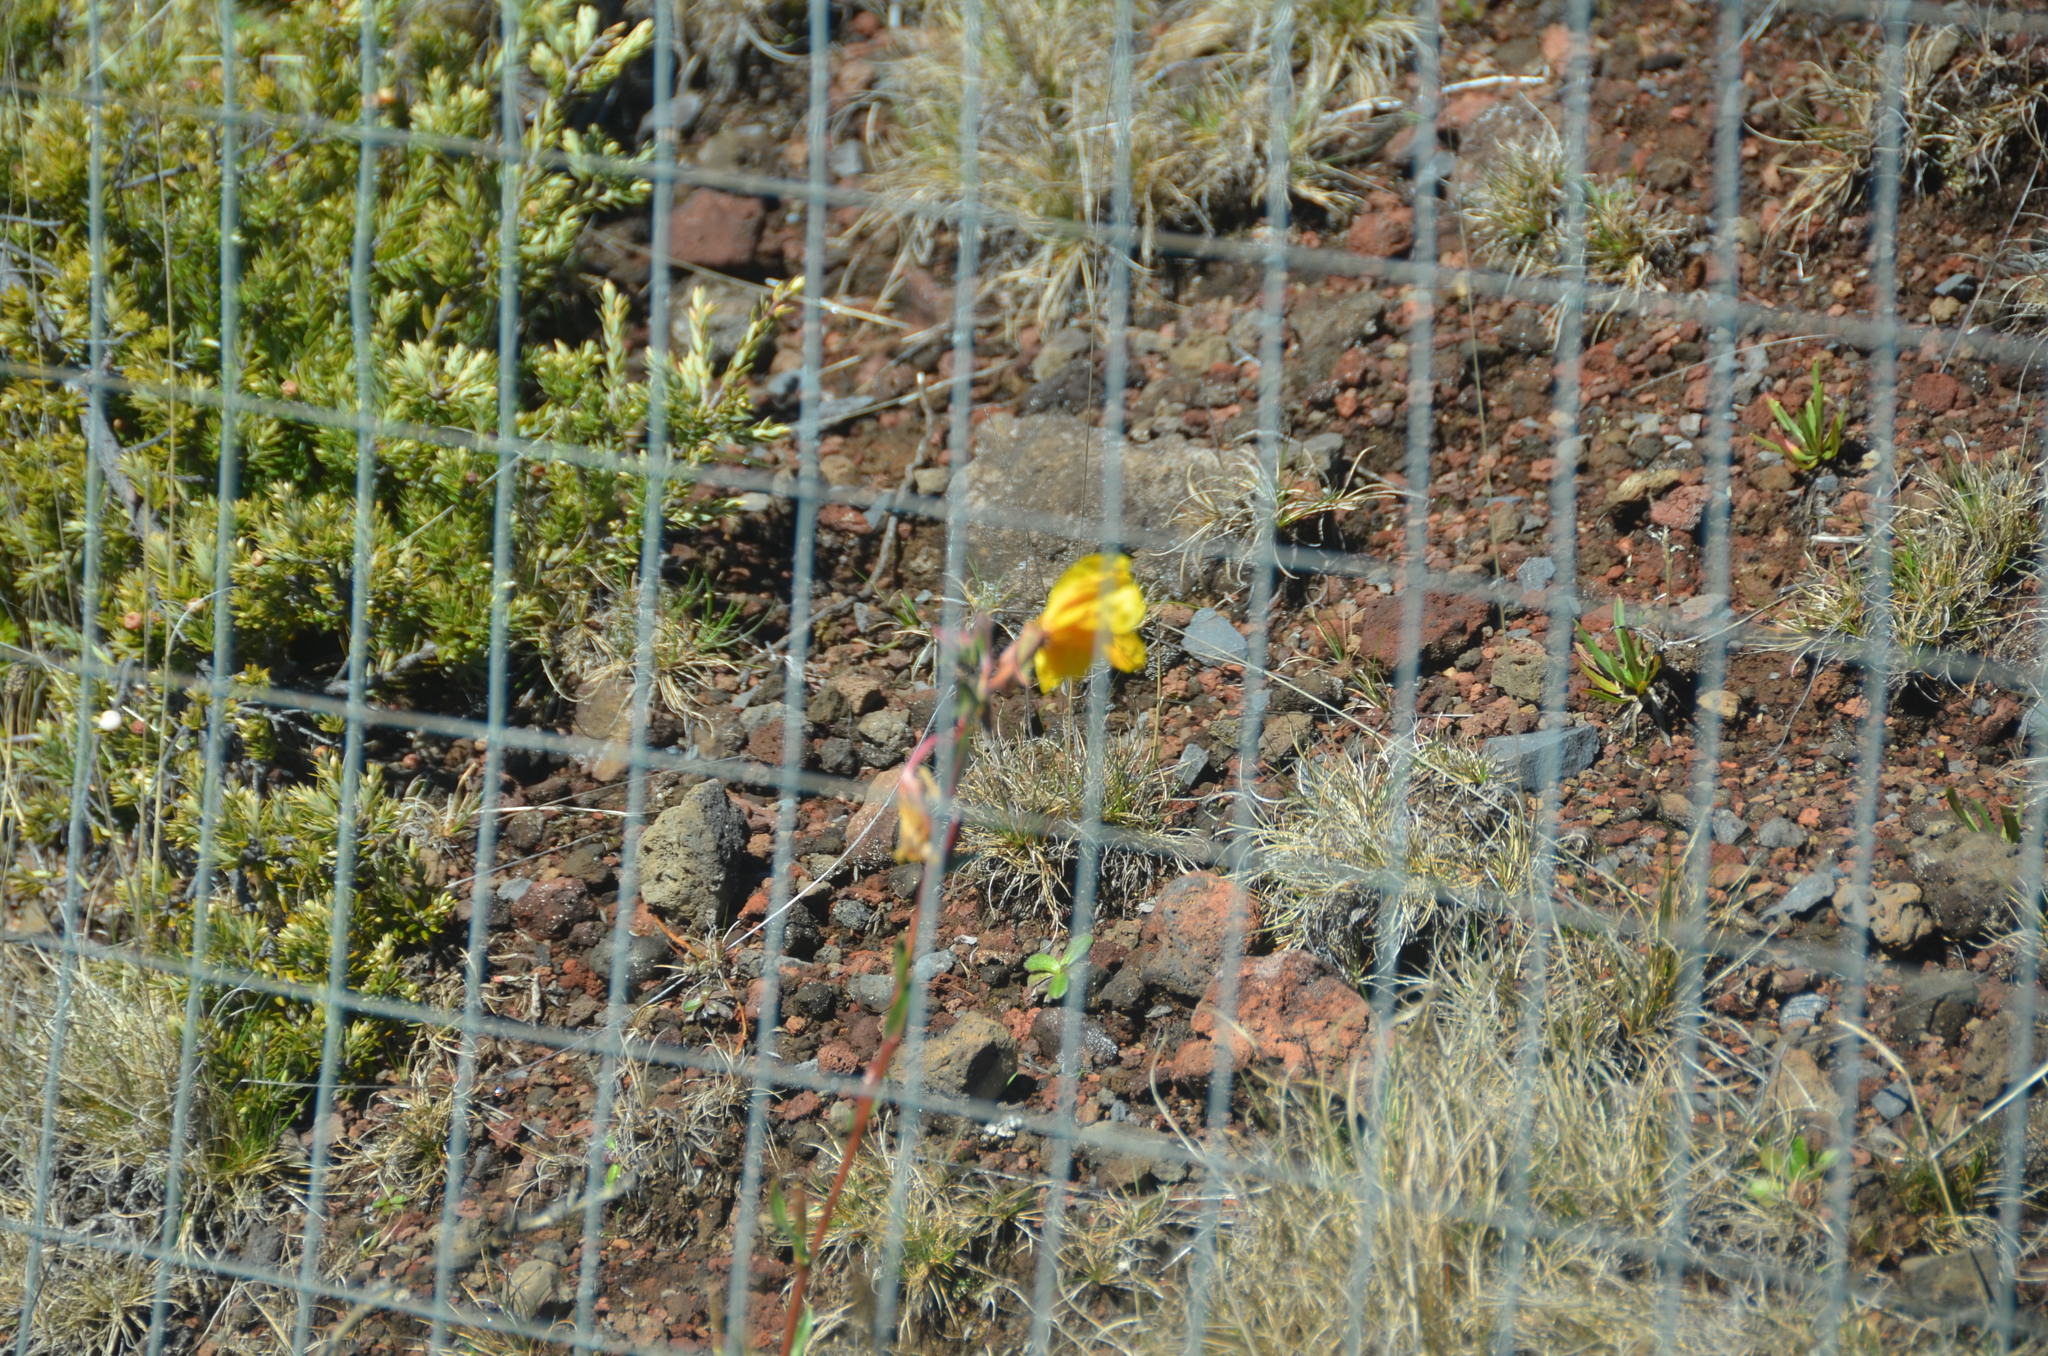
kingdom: Plantae
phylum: Tracheophyta
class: Magnoliopsida
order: Myrtales
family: Onagraceae
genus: Oenothera
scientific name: Oenothera stricta
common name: Fragrant evening-primrose
